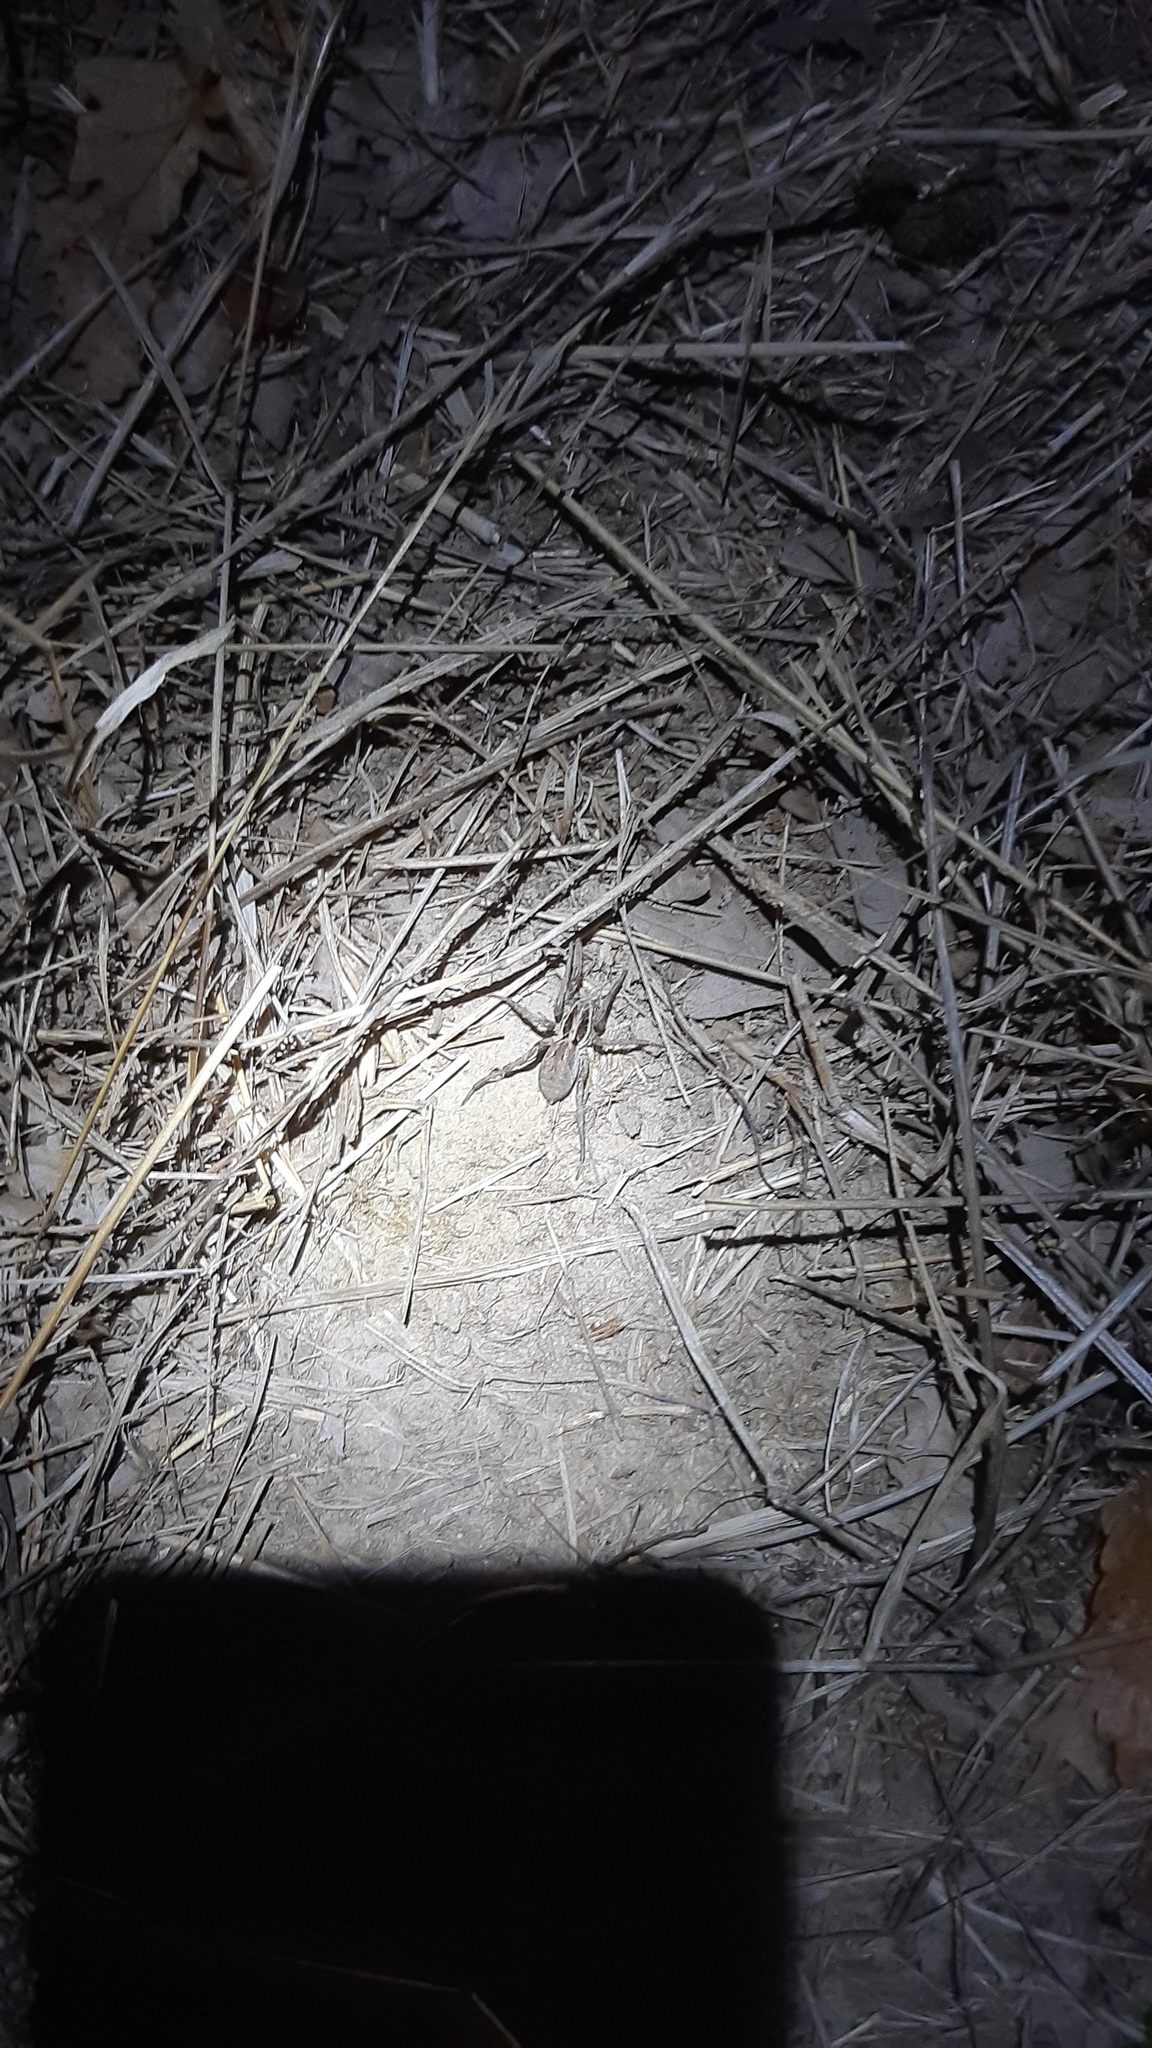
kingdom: Animalia
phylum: Arthropoda
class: Arachnida
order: Araneae
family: Lycosidae
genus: Hogna
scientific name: Hogna radiata
